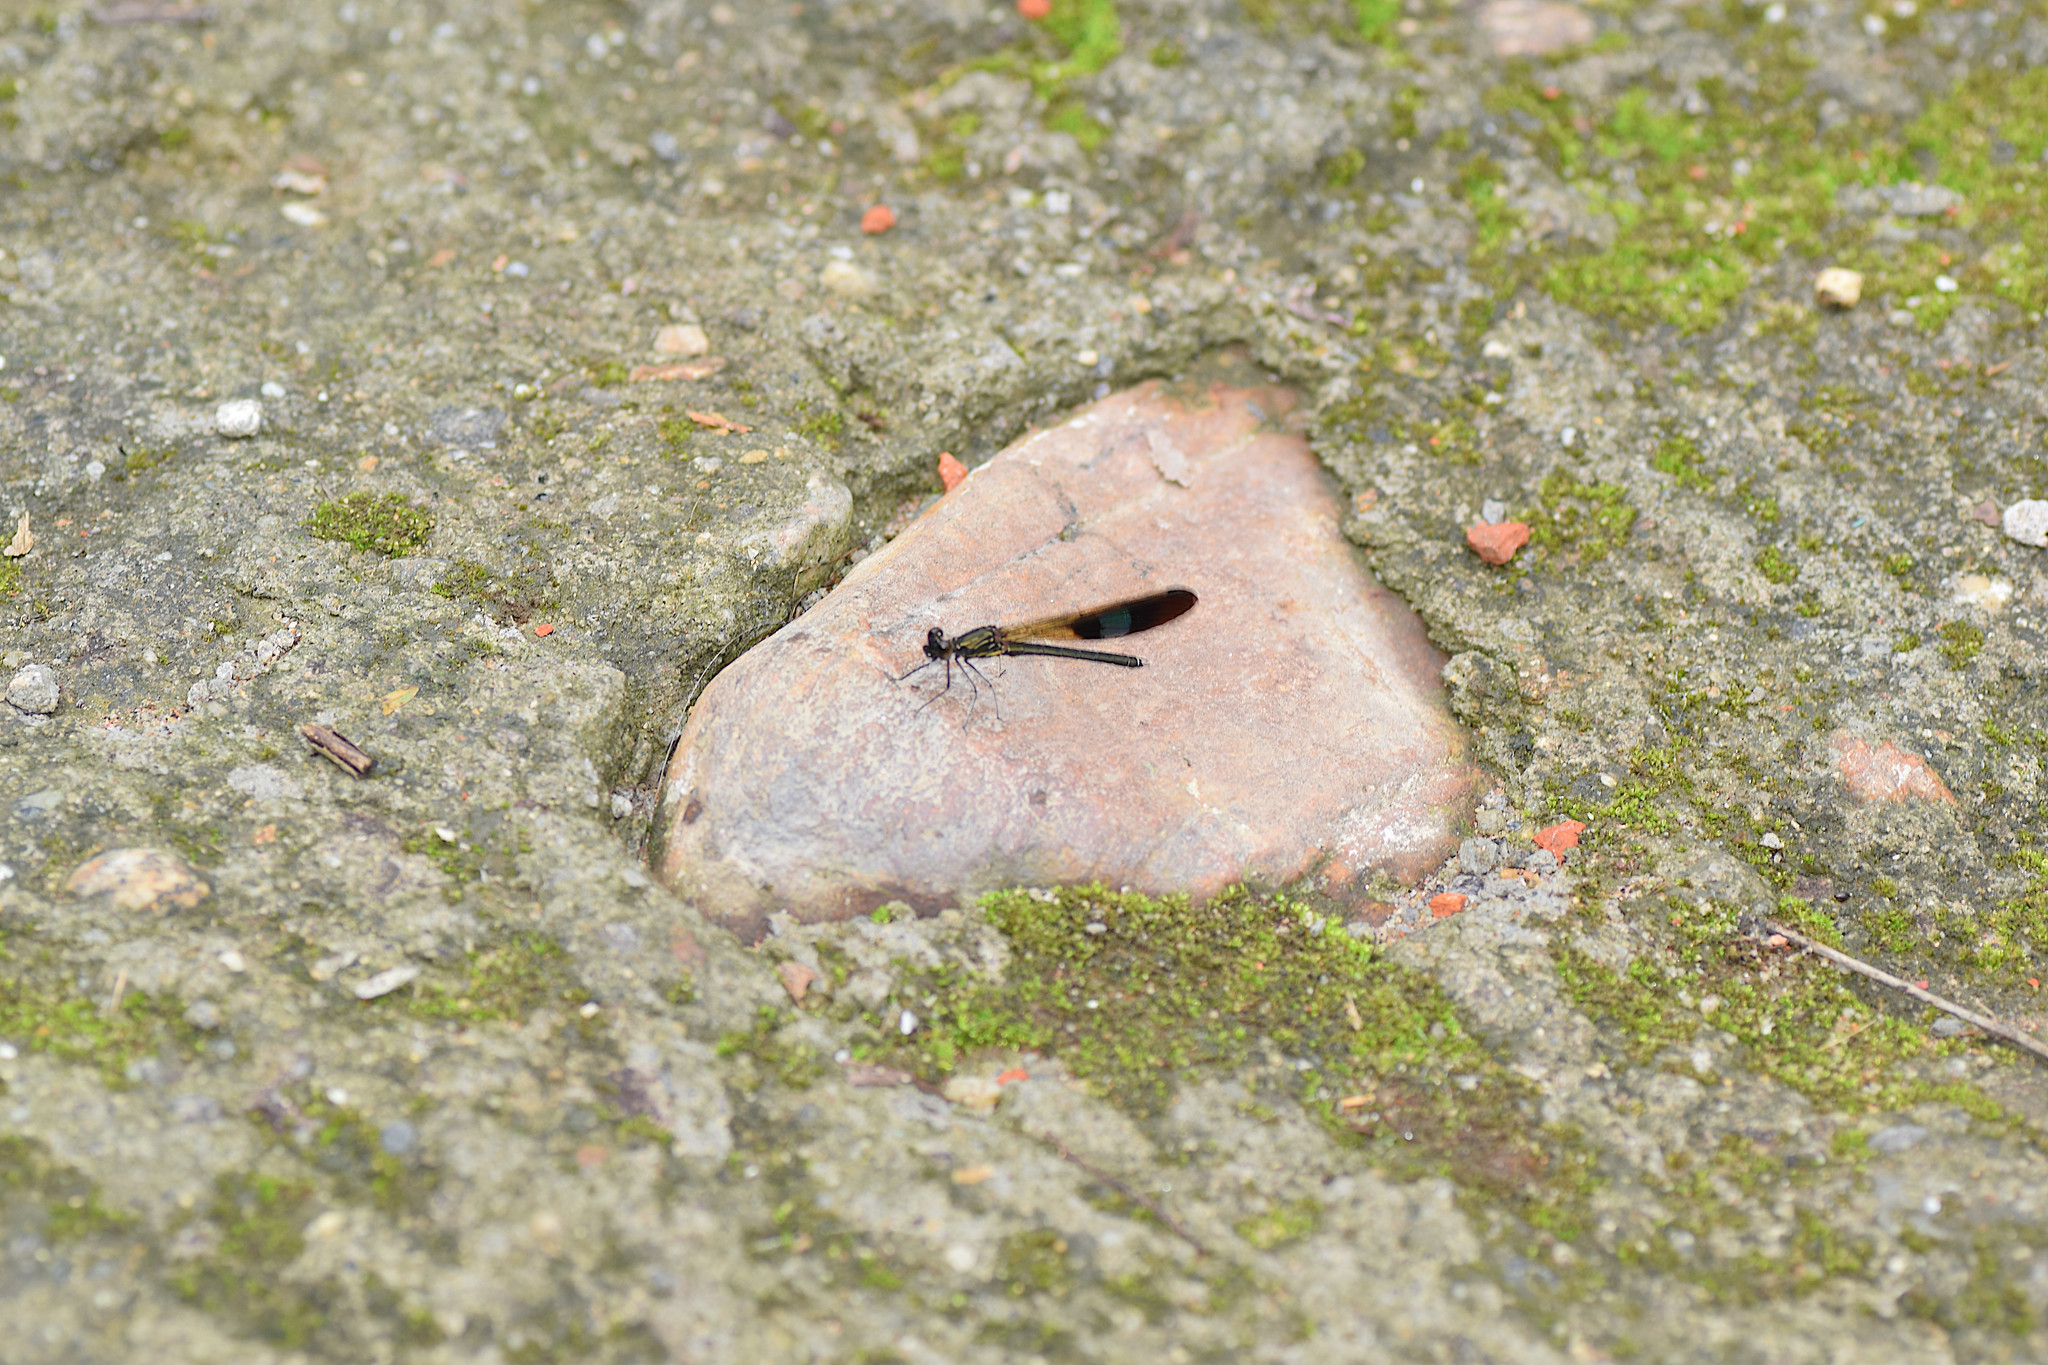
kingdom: Animalia
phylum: Arthropoda
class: Insecta
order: Odonata
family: Chlorocyphidae
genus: Rhinocypha
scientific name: Rhinocypha unimaculata
